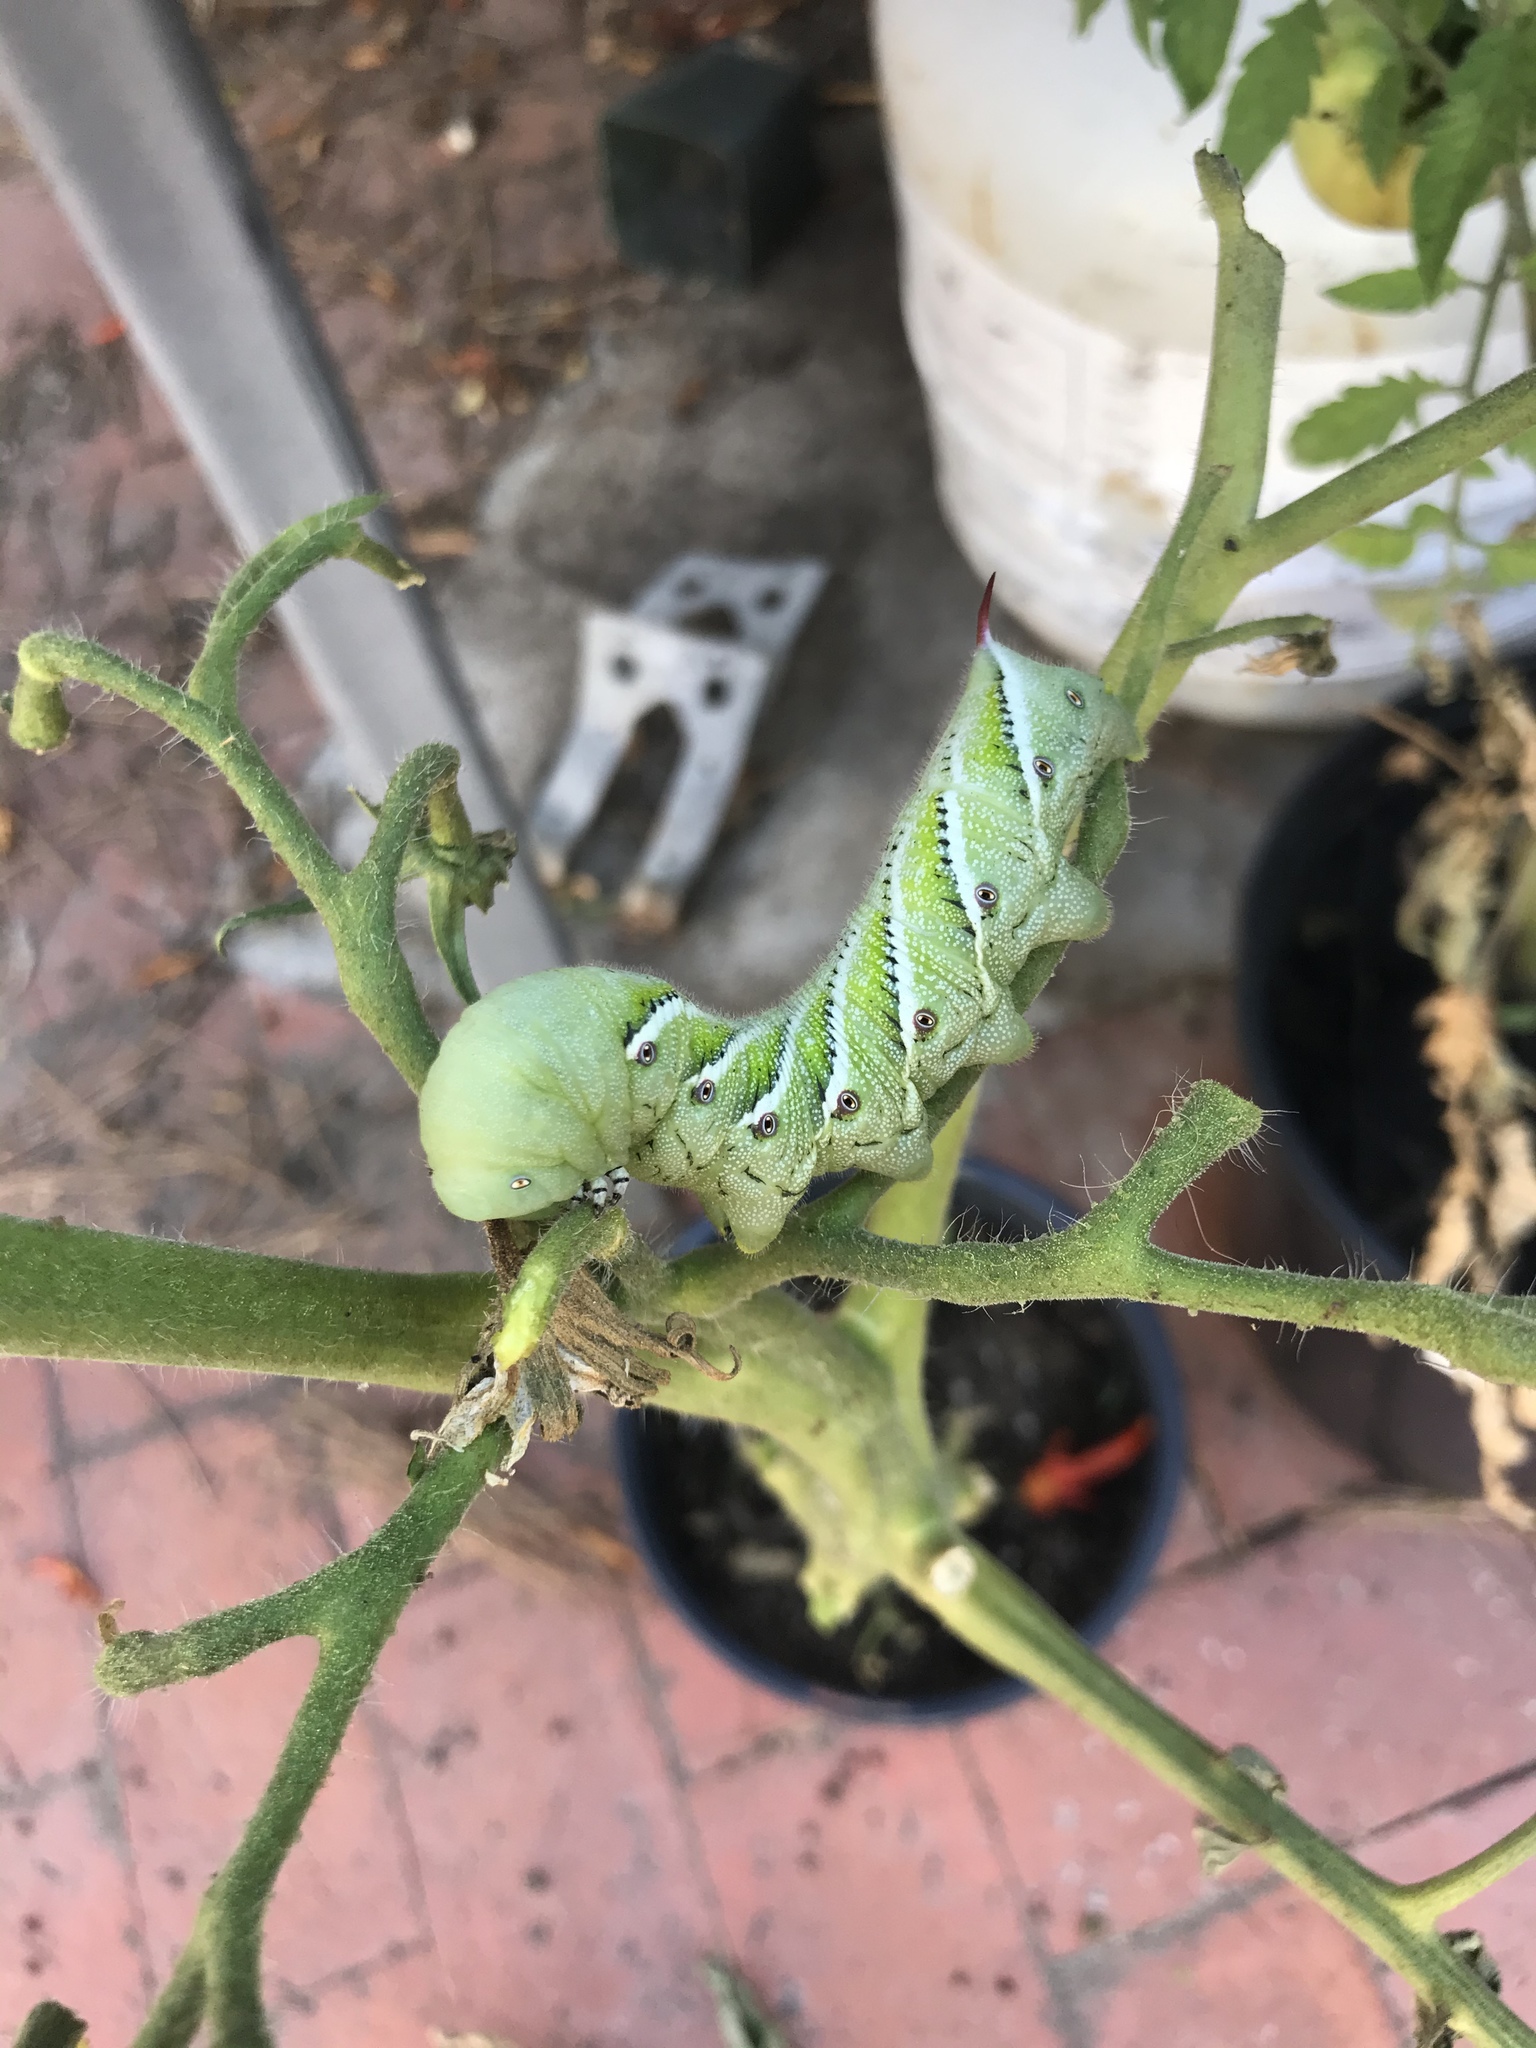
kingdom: Animalia
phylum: Arthropoda
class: Insecta
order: Lepidoptera
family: Sphingidae
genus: Manduca
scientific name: Manduca sexta
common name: Carolina sphinx
